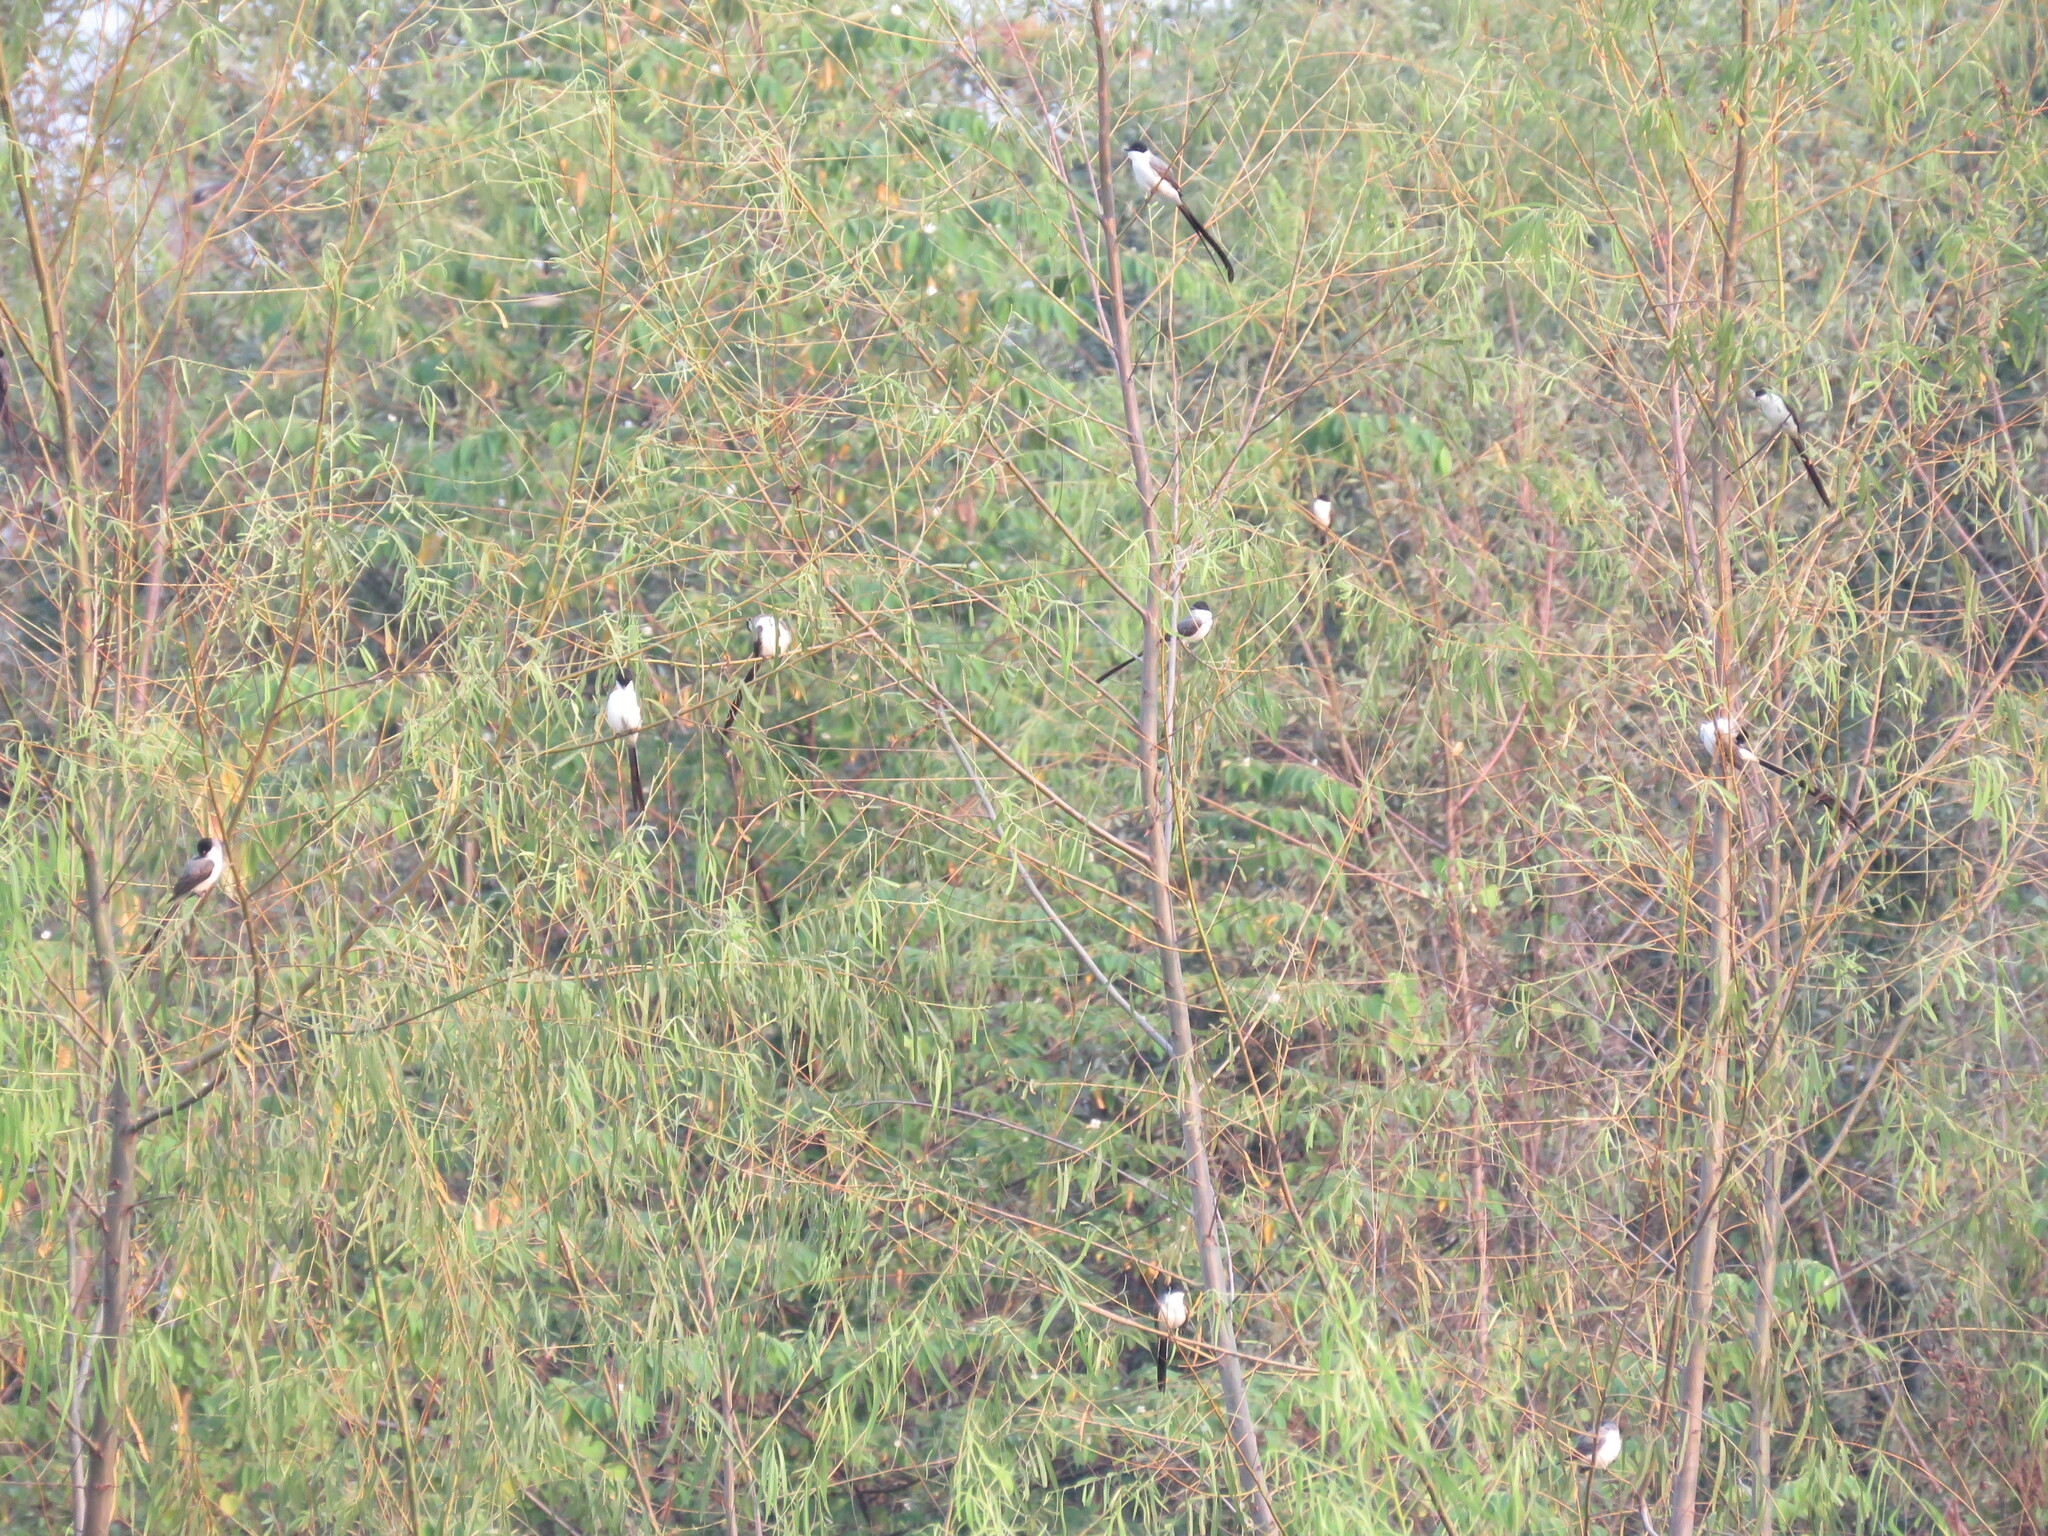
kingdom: Animalia
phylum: Chordata
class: Aves
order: Passeriformes
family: Tyrannidae
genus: Tyrannus
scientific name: Tyrannus savana
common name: Fork-tailed flycatcher
